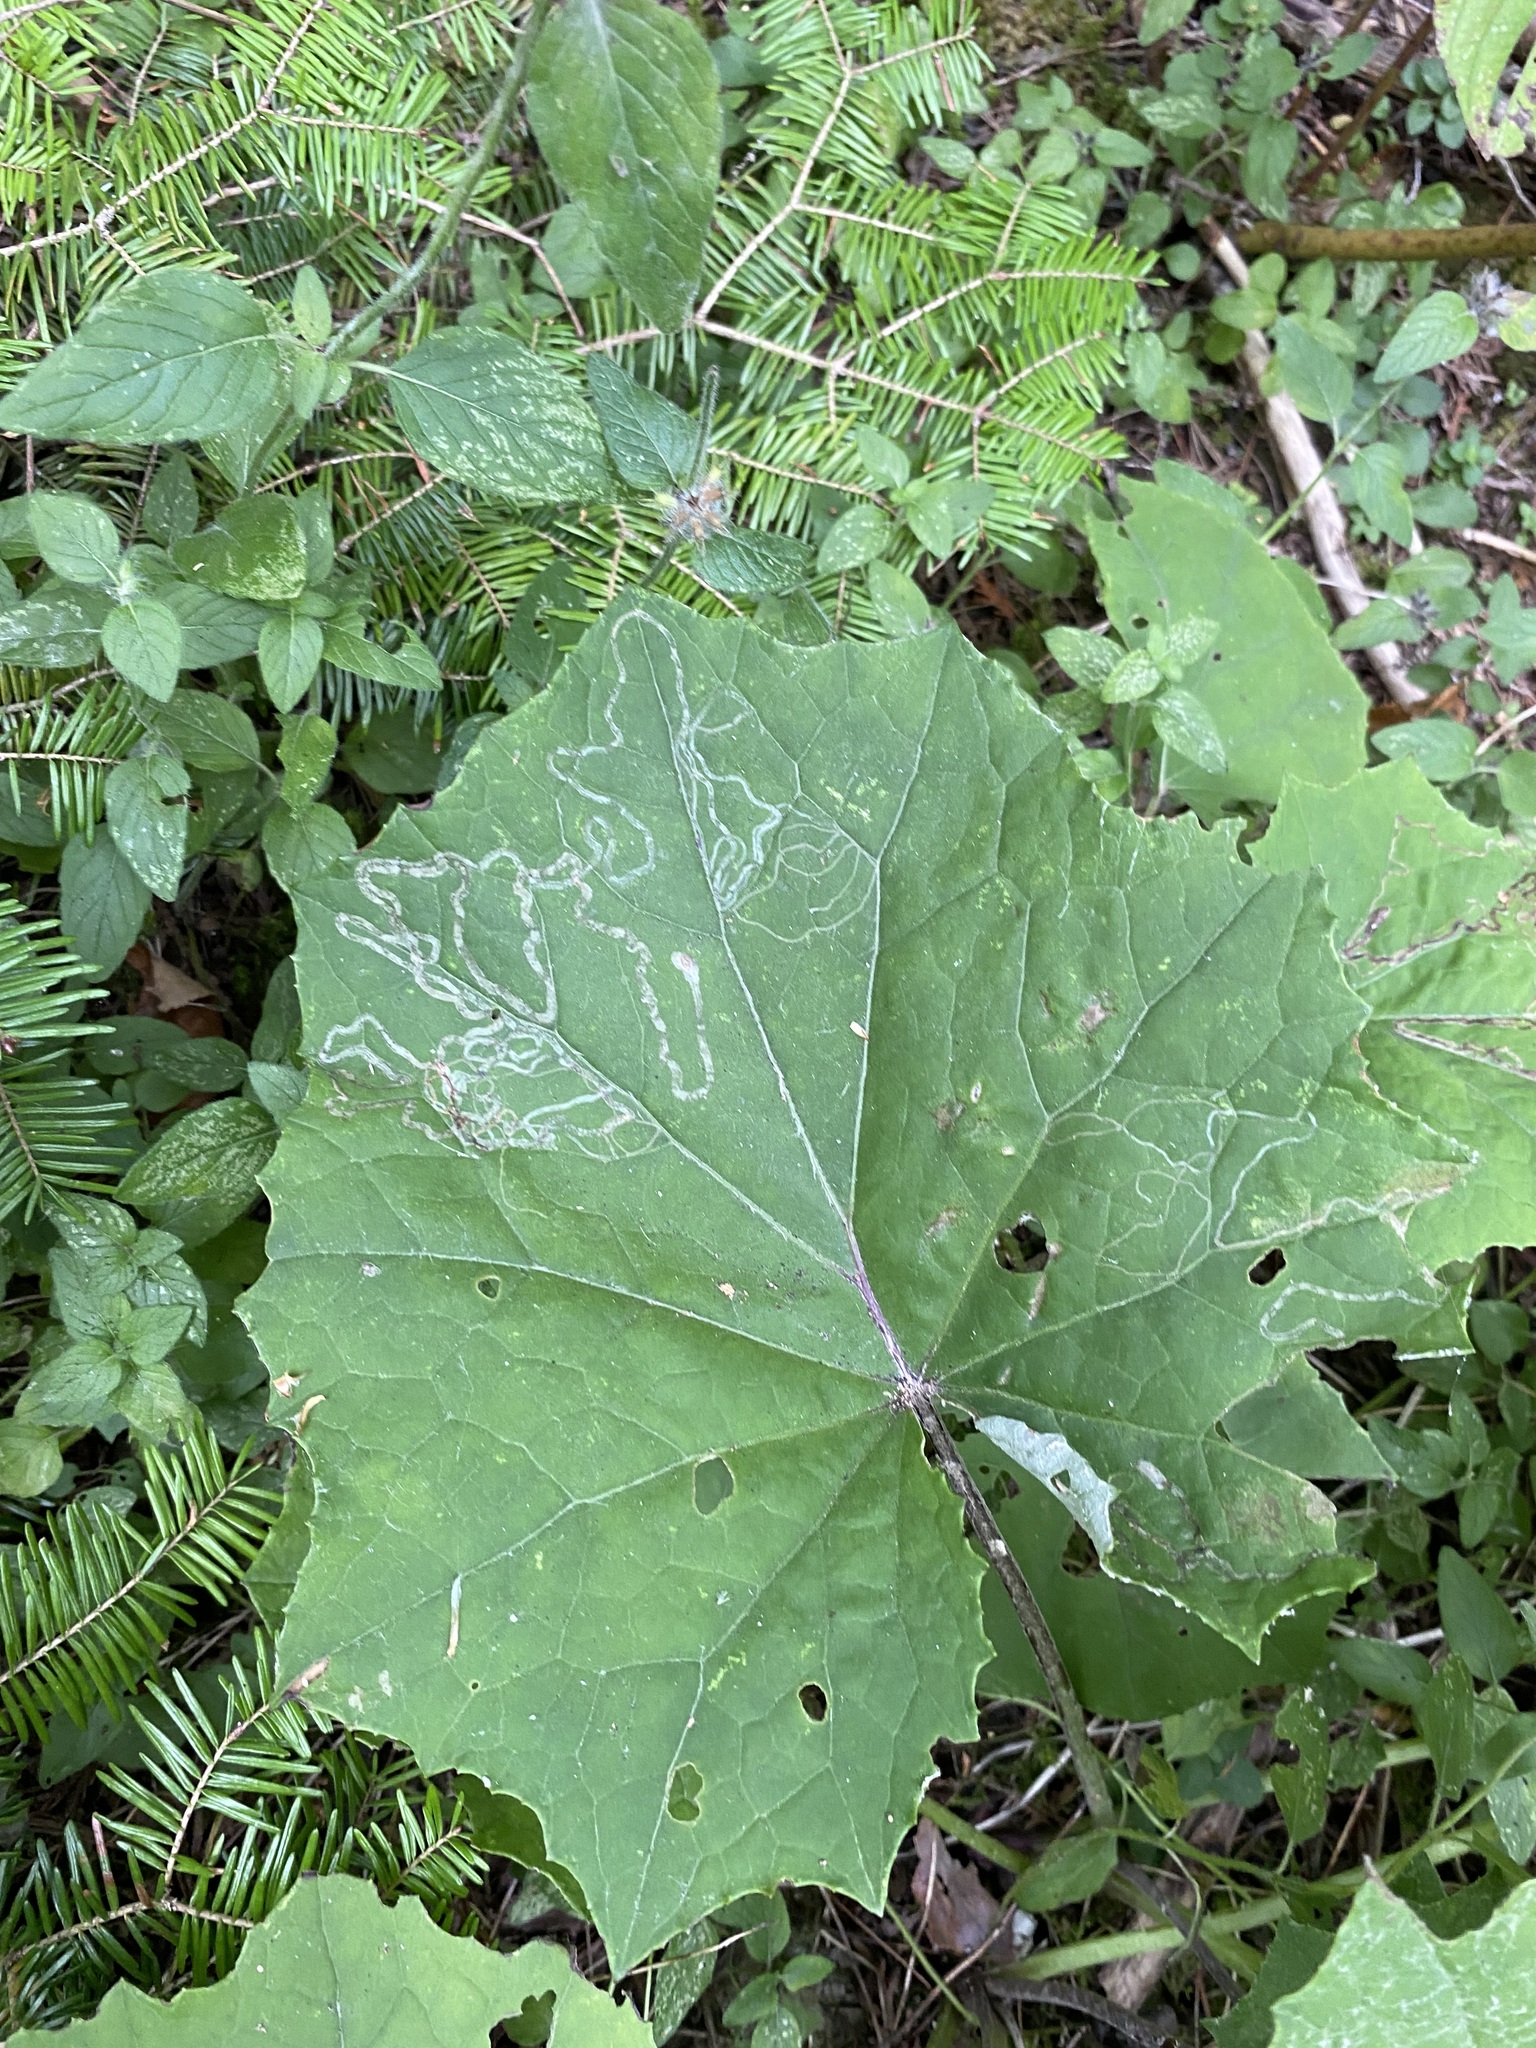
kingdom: Animalia
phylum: Arthropoda
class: Insecta
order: Lepidoptera
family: Gracillariidae
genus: Phyllocnistis
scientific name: Phyllocnistis insignis
